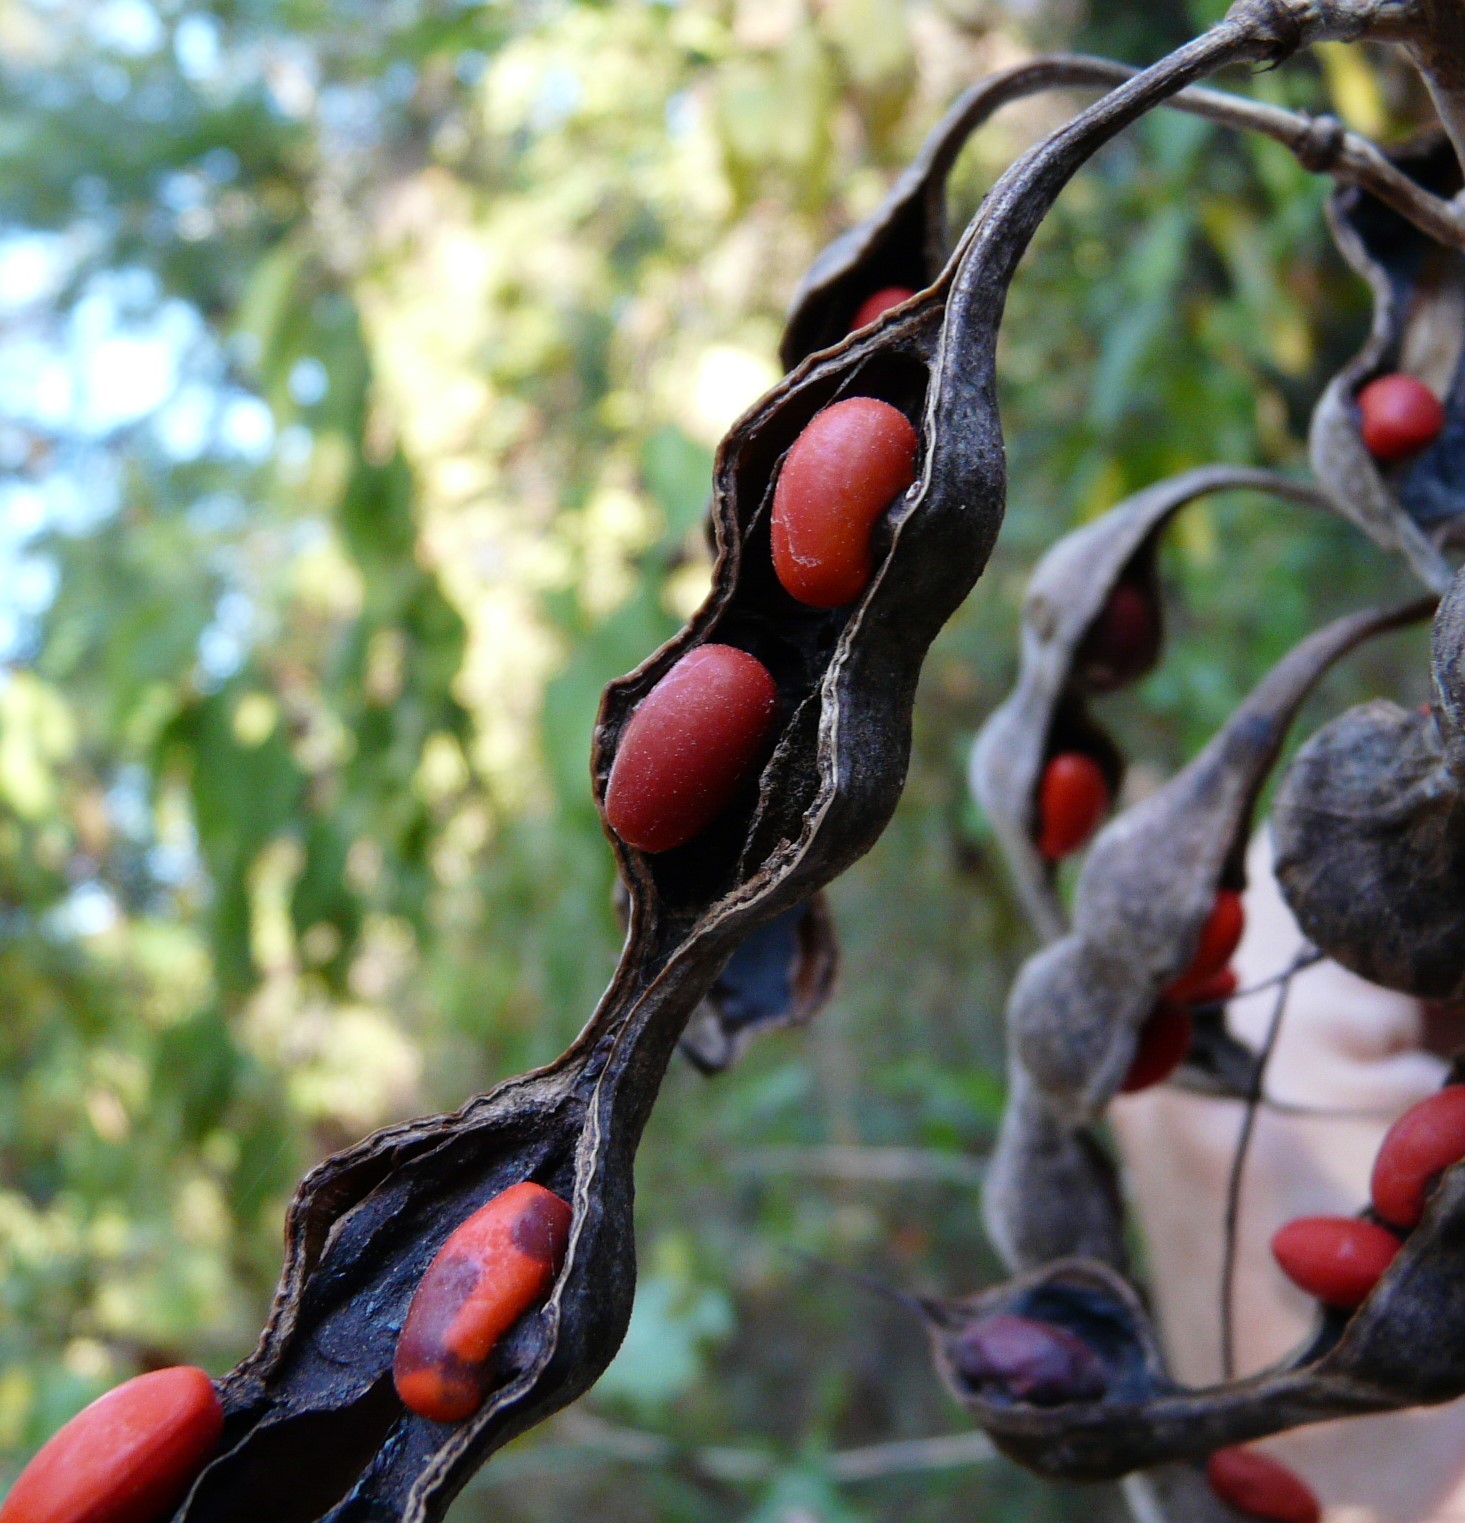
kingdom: Plantae
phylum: Tracheophyta
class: Magnoliopsida
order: Fabales
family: Fabaceae
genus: Erythrina
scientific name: Erythrina herbacea
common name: Coral-bean
